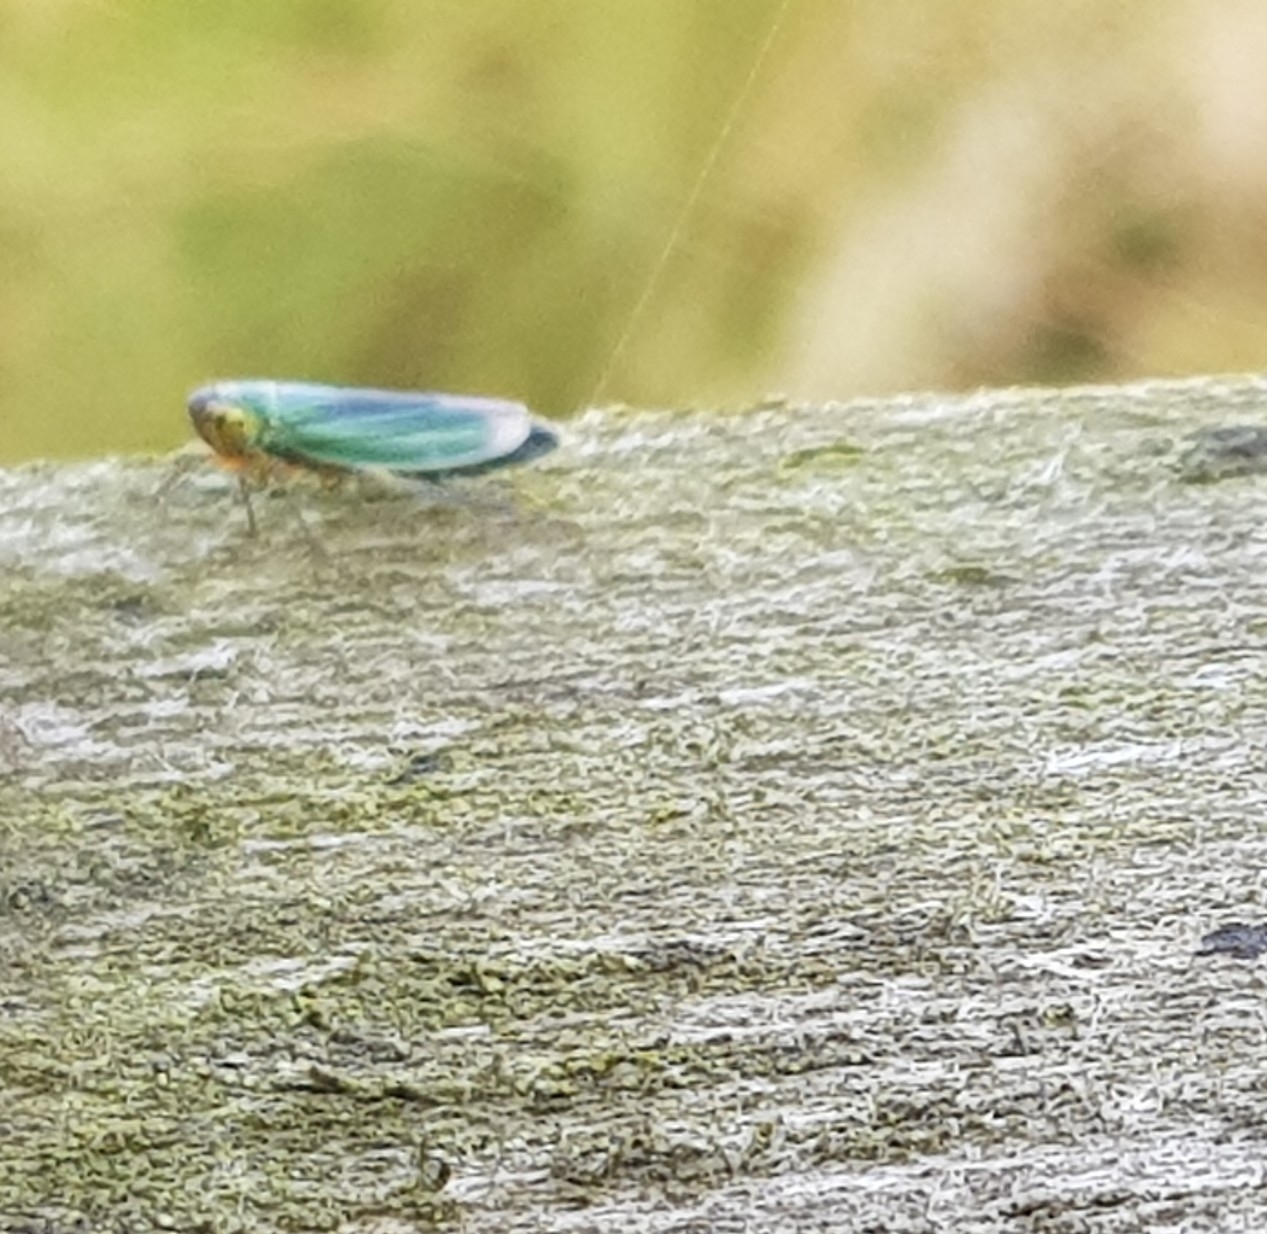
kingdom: Animalia
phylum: Arthropoda
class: Insecta
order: Hemiptera
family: Cicadellidae
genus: Cicadella
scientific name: Cicadella viridis
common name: Leafhopper
